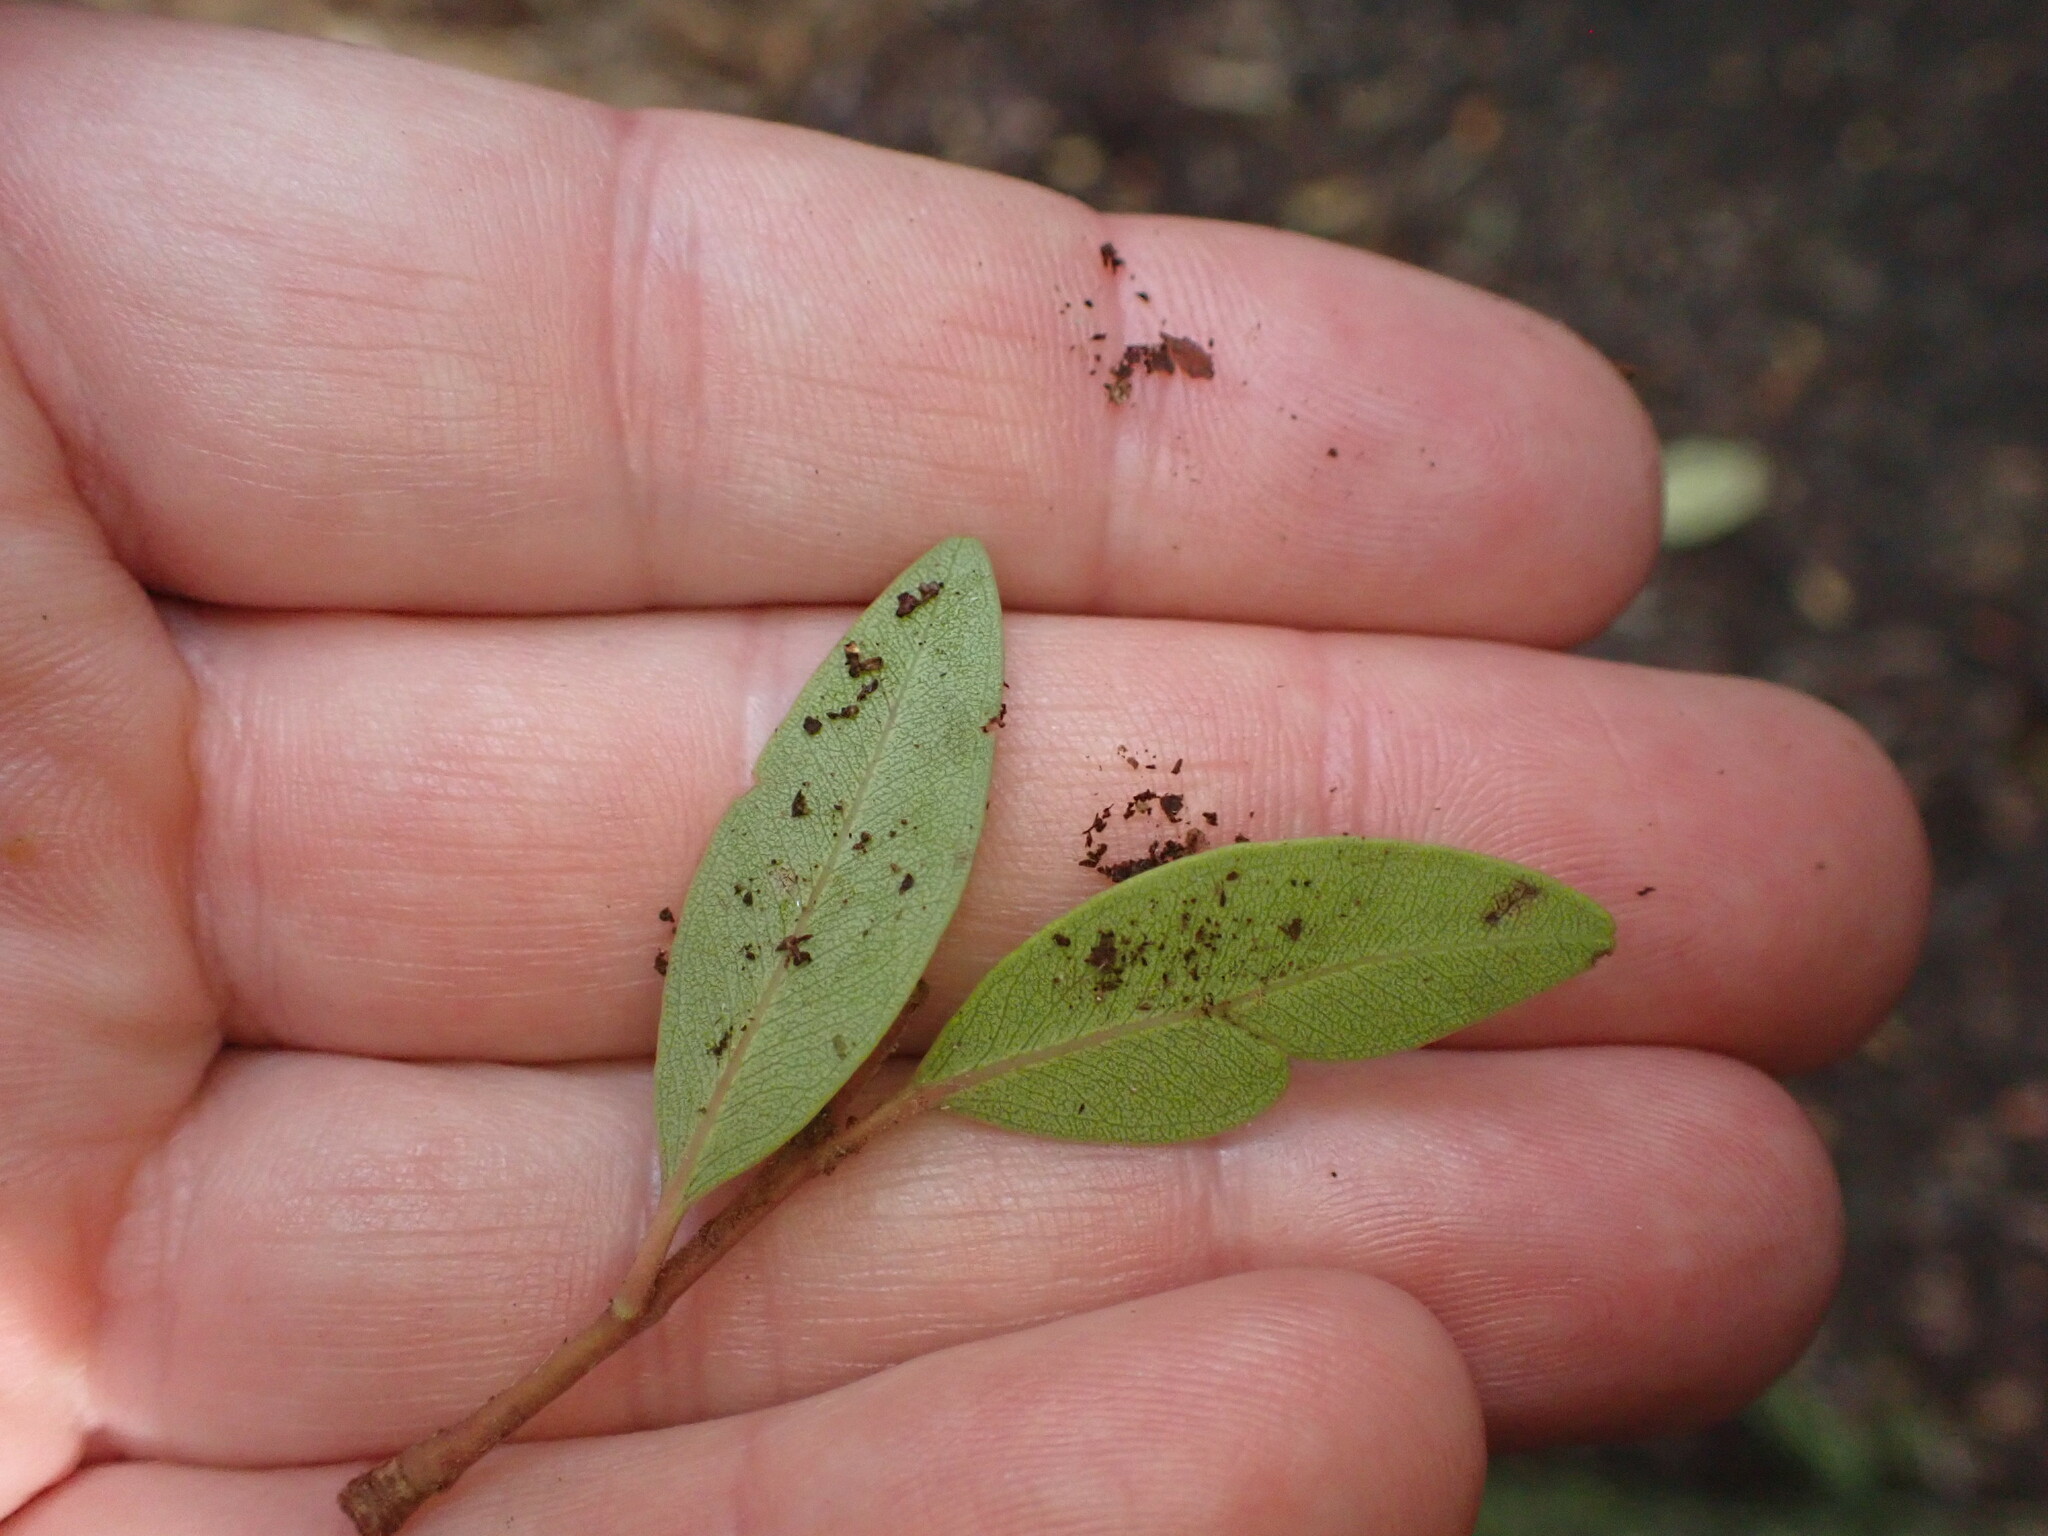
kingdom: Plantae
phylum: Tracheophyta
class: Magnoliopsida
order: Myrtales
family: Myrtaceae
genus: Metrosideros
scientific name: Metrosideros robusta
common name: Northern rata
